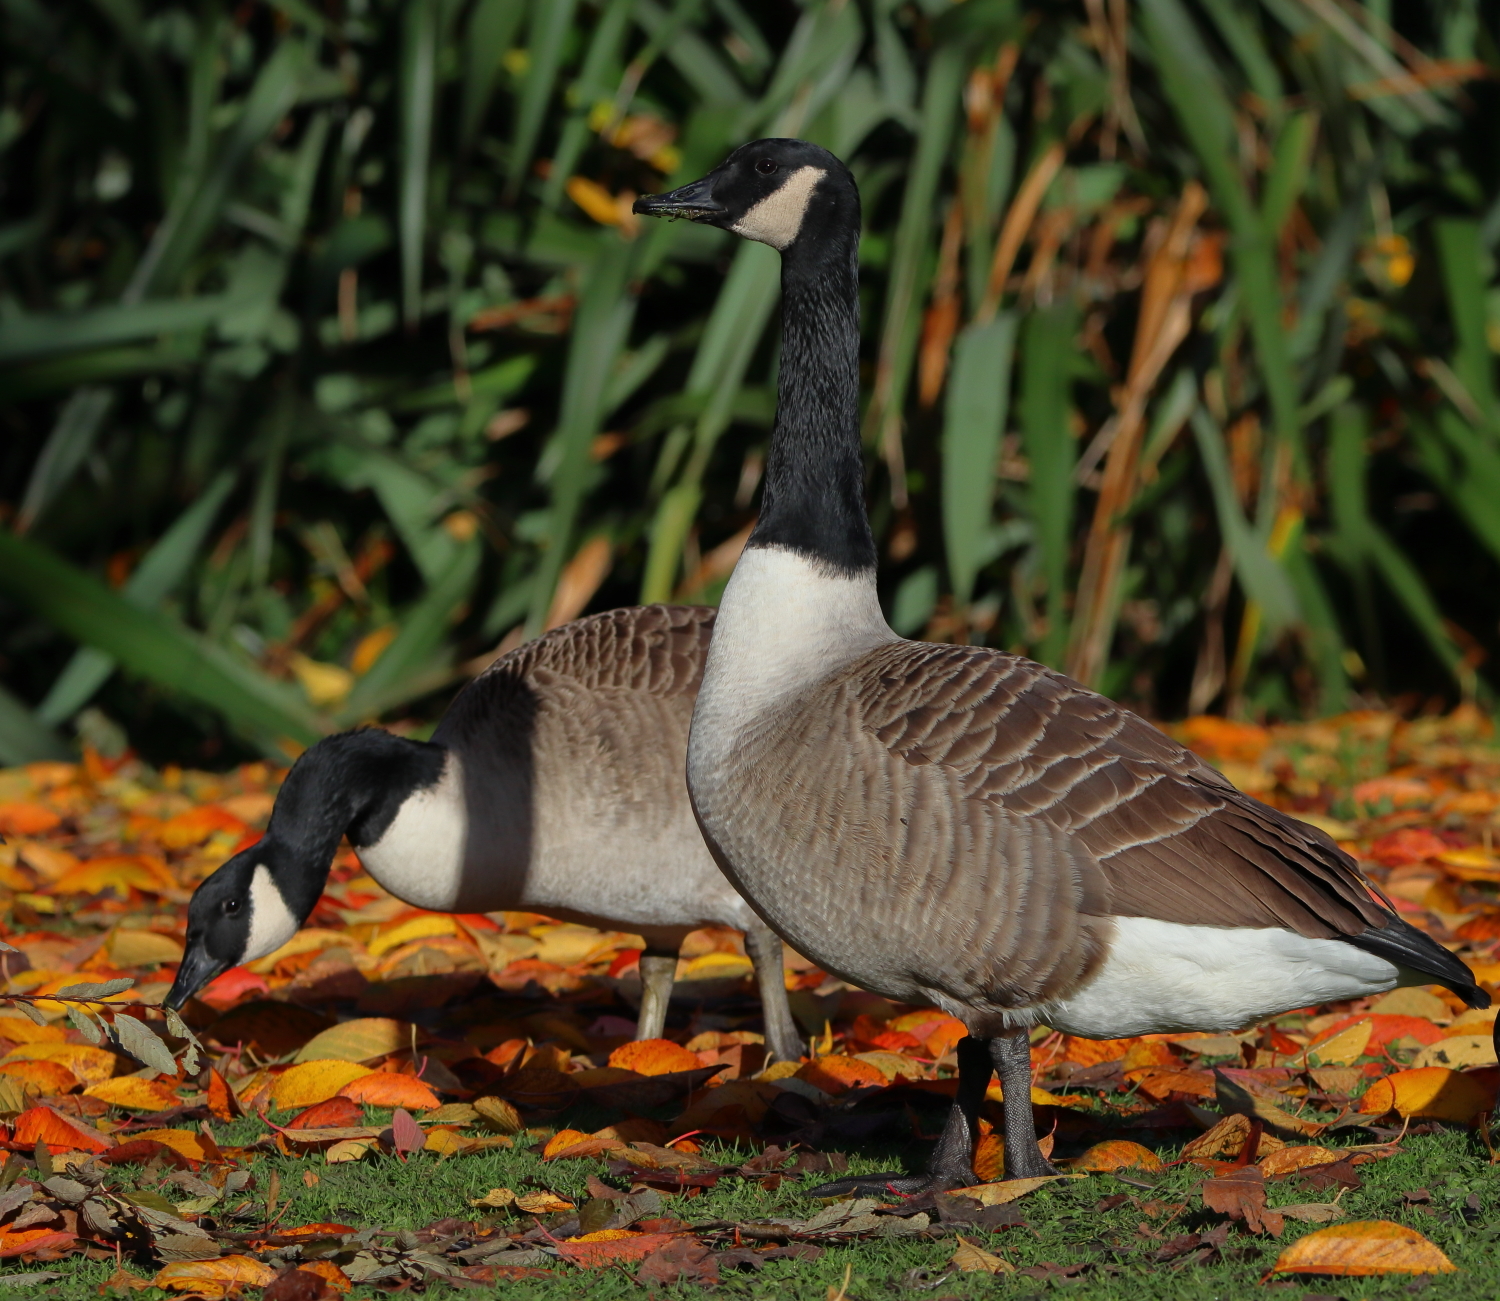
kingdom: Animalia
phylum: Chordata
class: Aves
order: Anseriformes
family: Anatidae
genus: Branta
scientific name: Branta canadensis
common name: Canada goose
